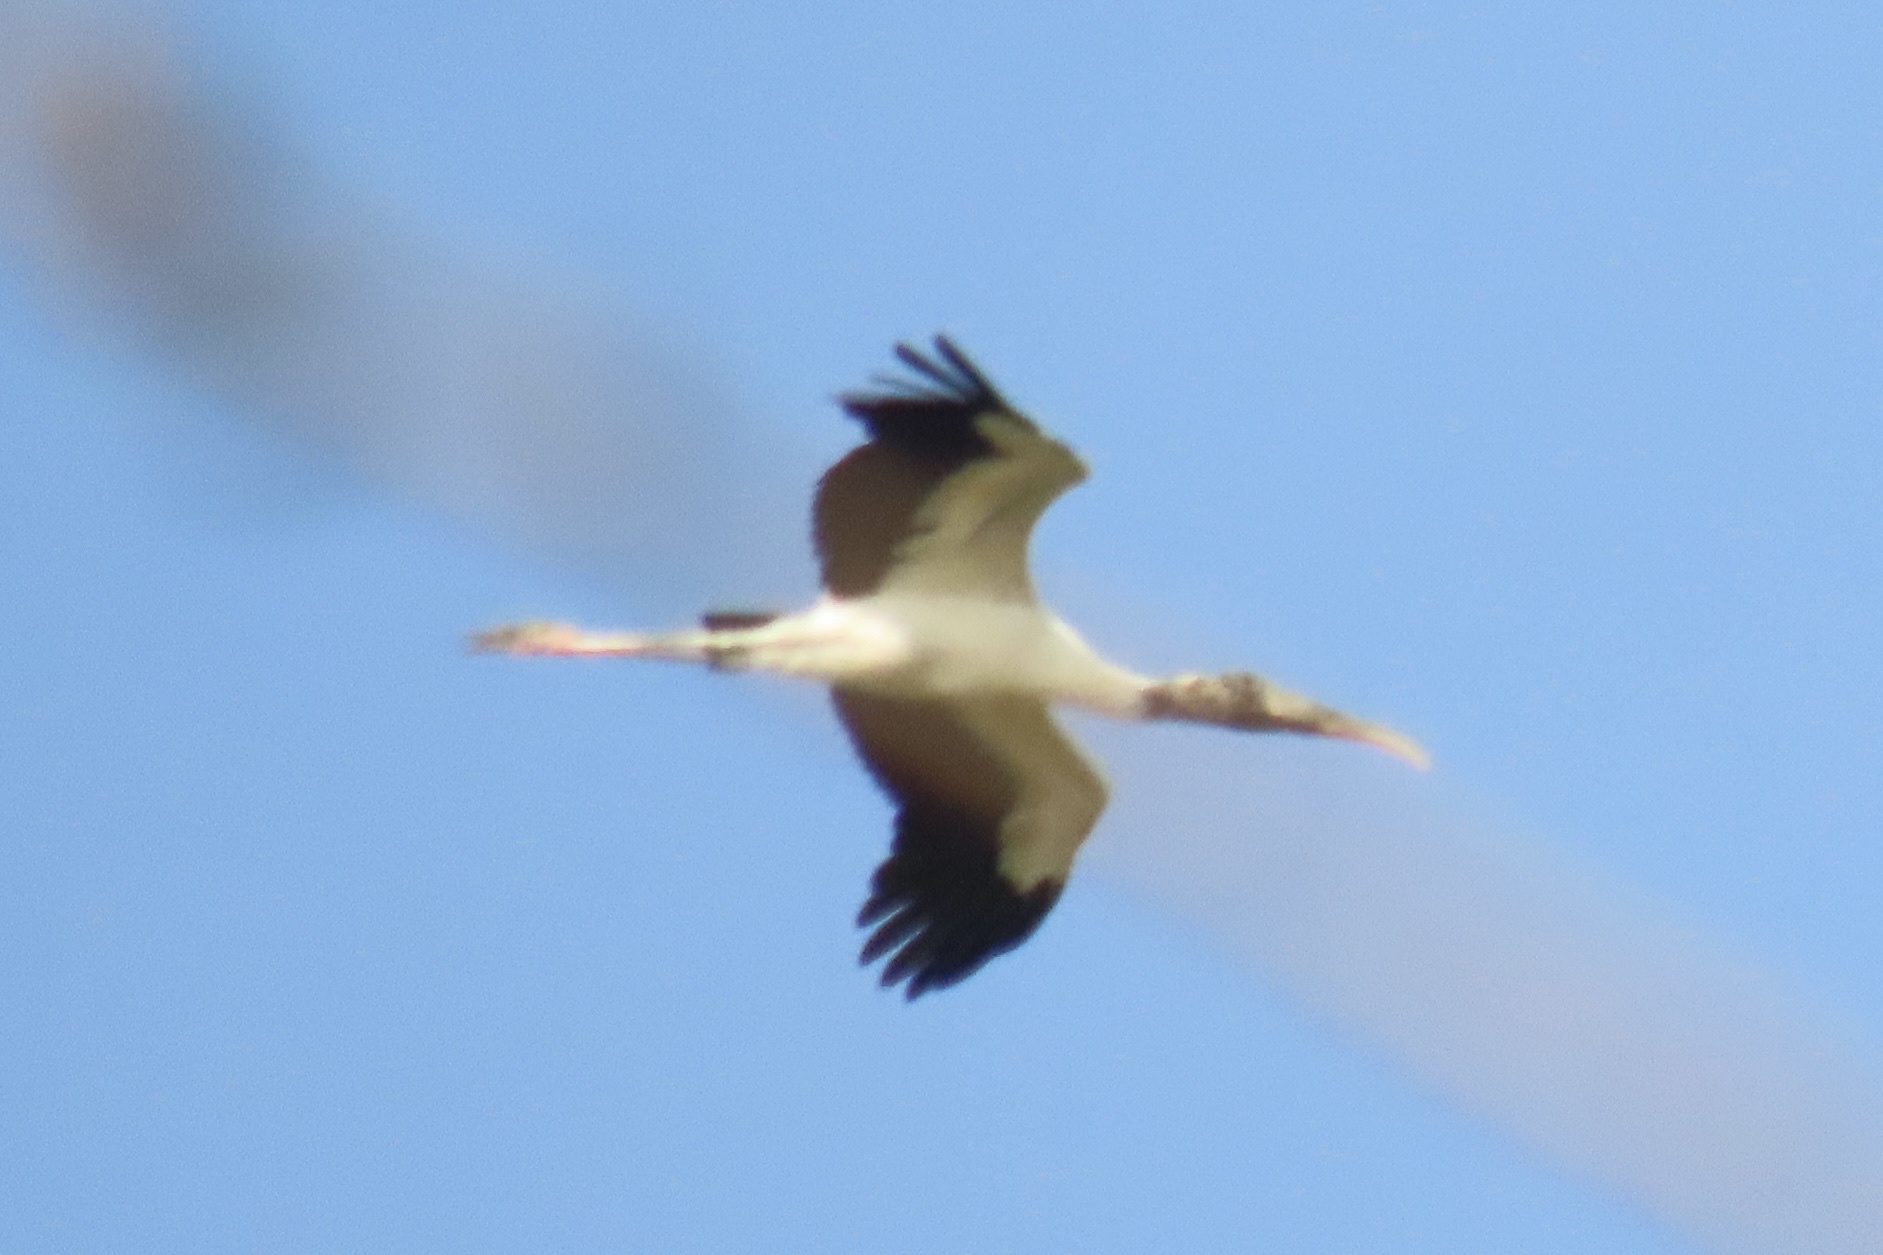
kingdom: Animalia
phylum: Chordata
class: Aves
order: Ciconiiformes
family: Ciconiidae
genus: Mycteria
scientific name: Mycteria americana
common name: Wood stork
